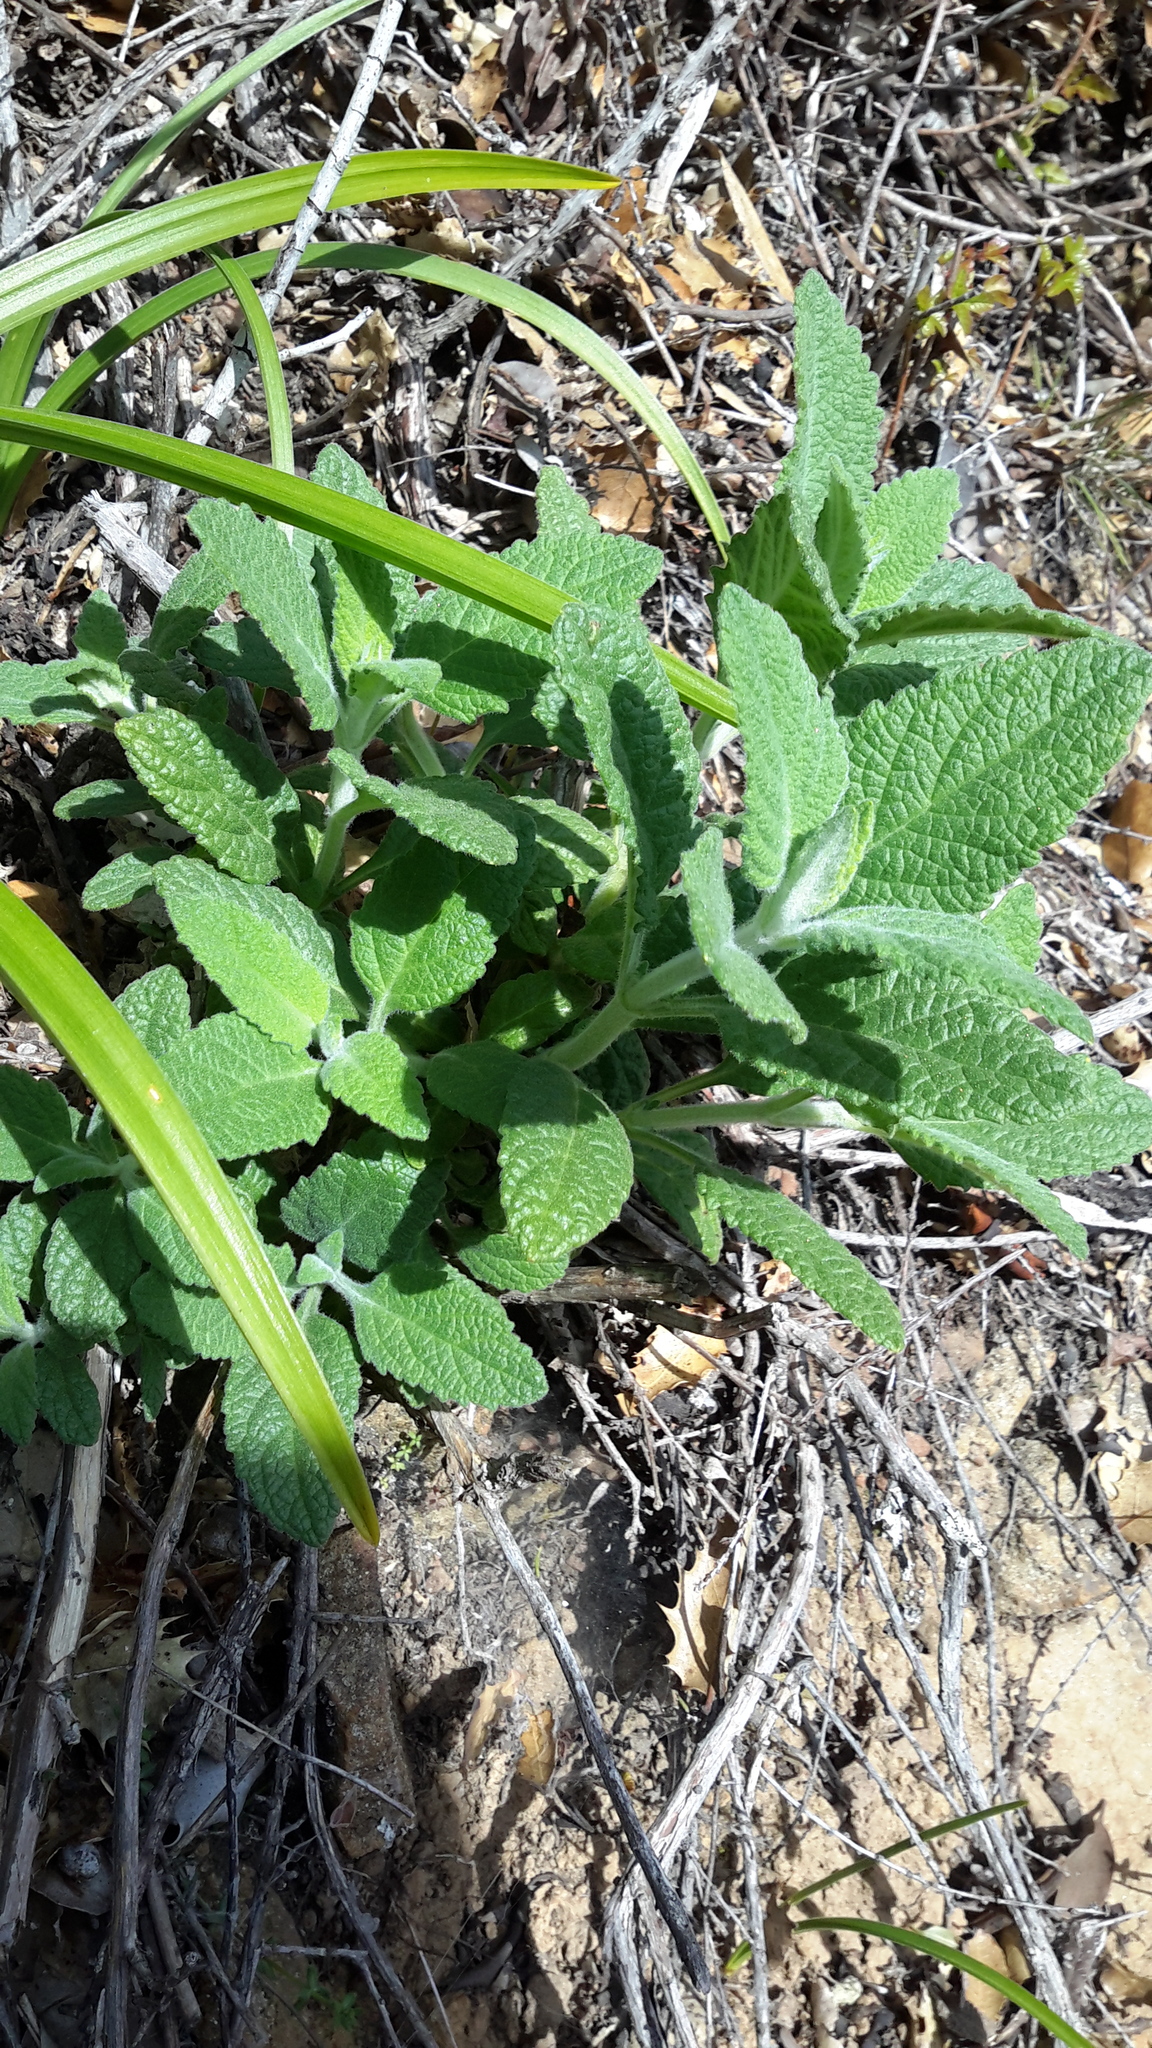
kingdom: Plantae
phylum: Tracheophyta
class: Magnoliopsida
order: Lamiales
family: Lamiaceae
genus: Lepechinia
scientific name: Lepechinia calycina
